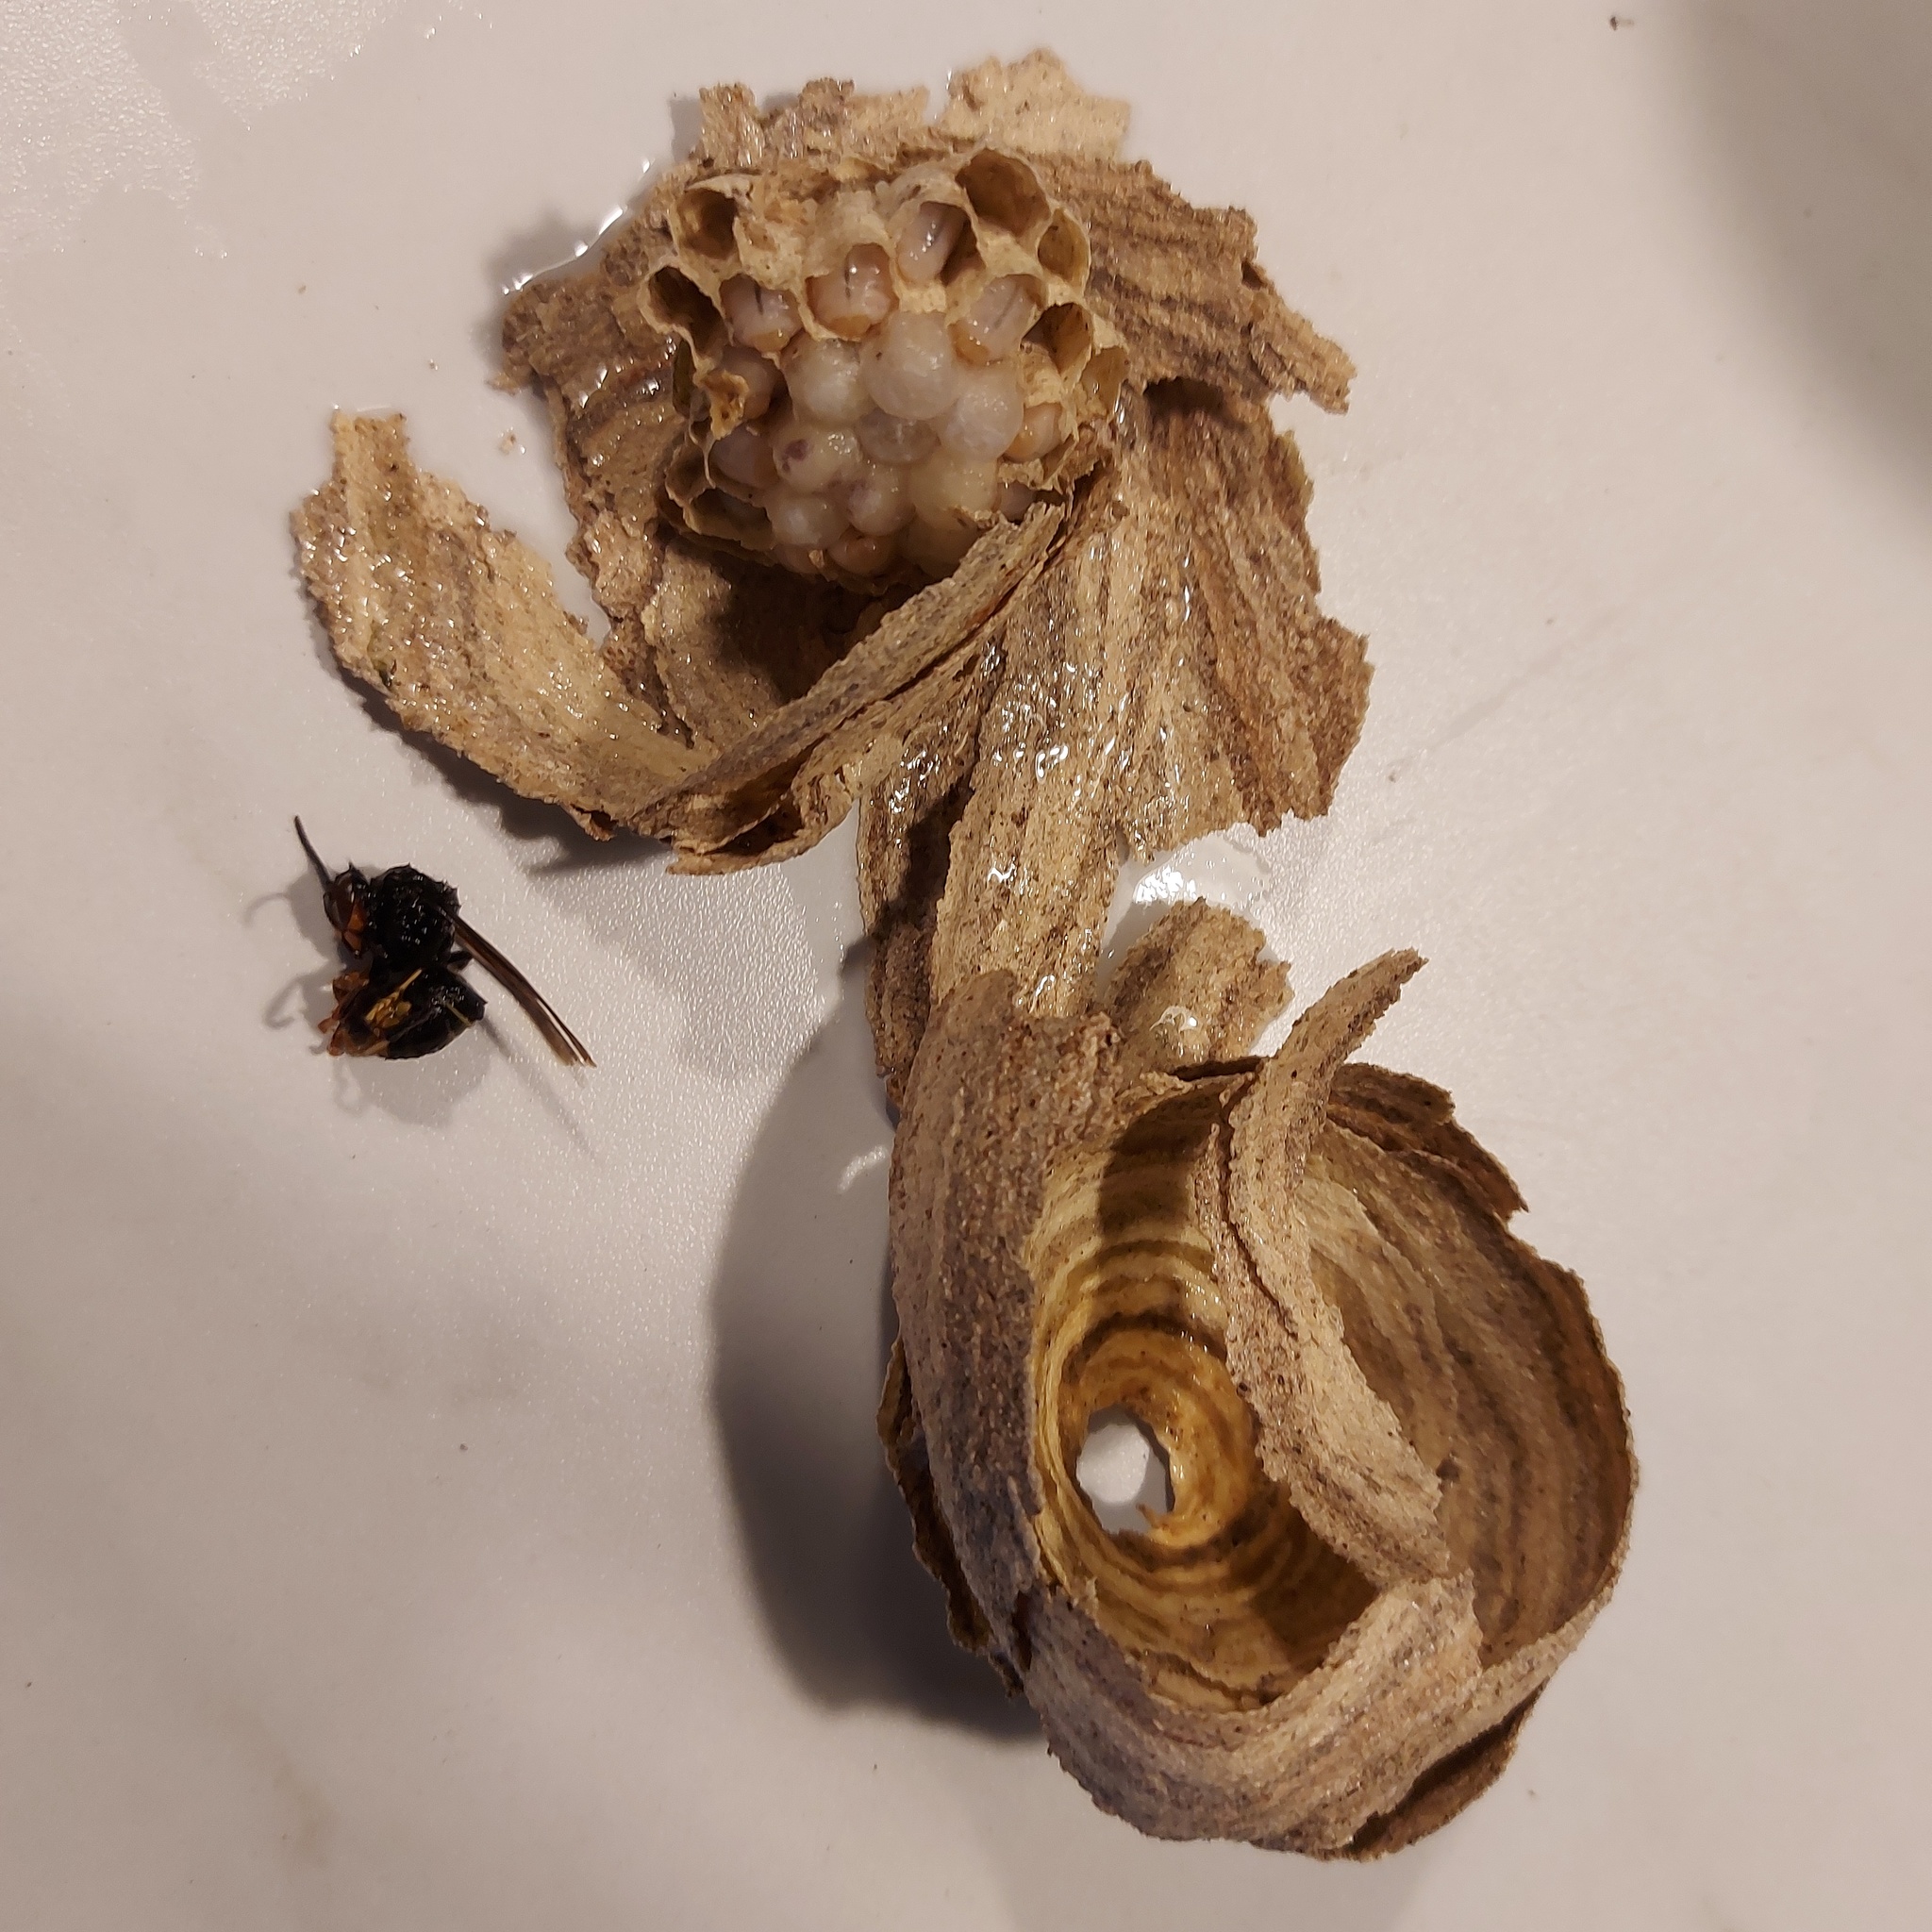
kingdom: Animalia
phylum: Arthropoda
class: Insecta
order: Hymenoptera
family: Vespidae
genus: Vespa
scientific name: Vespa velutina
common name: Asian hornet
